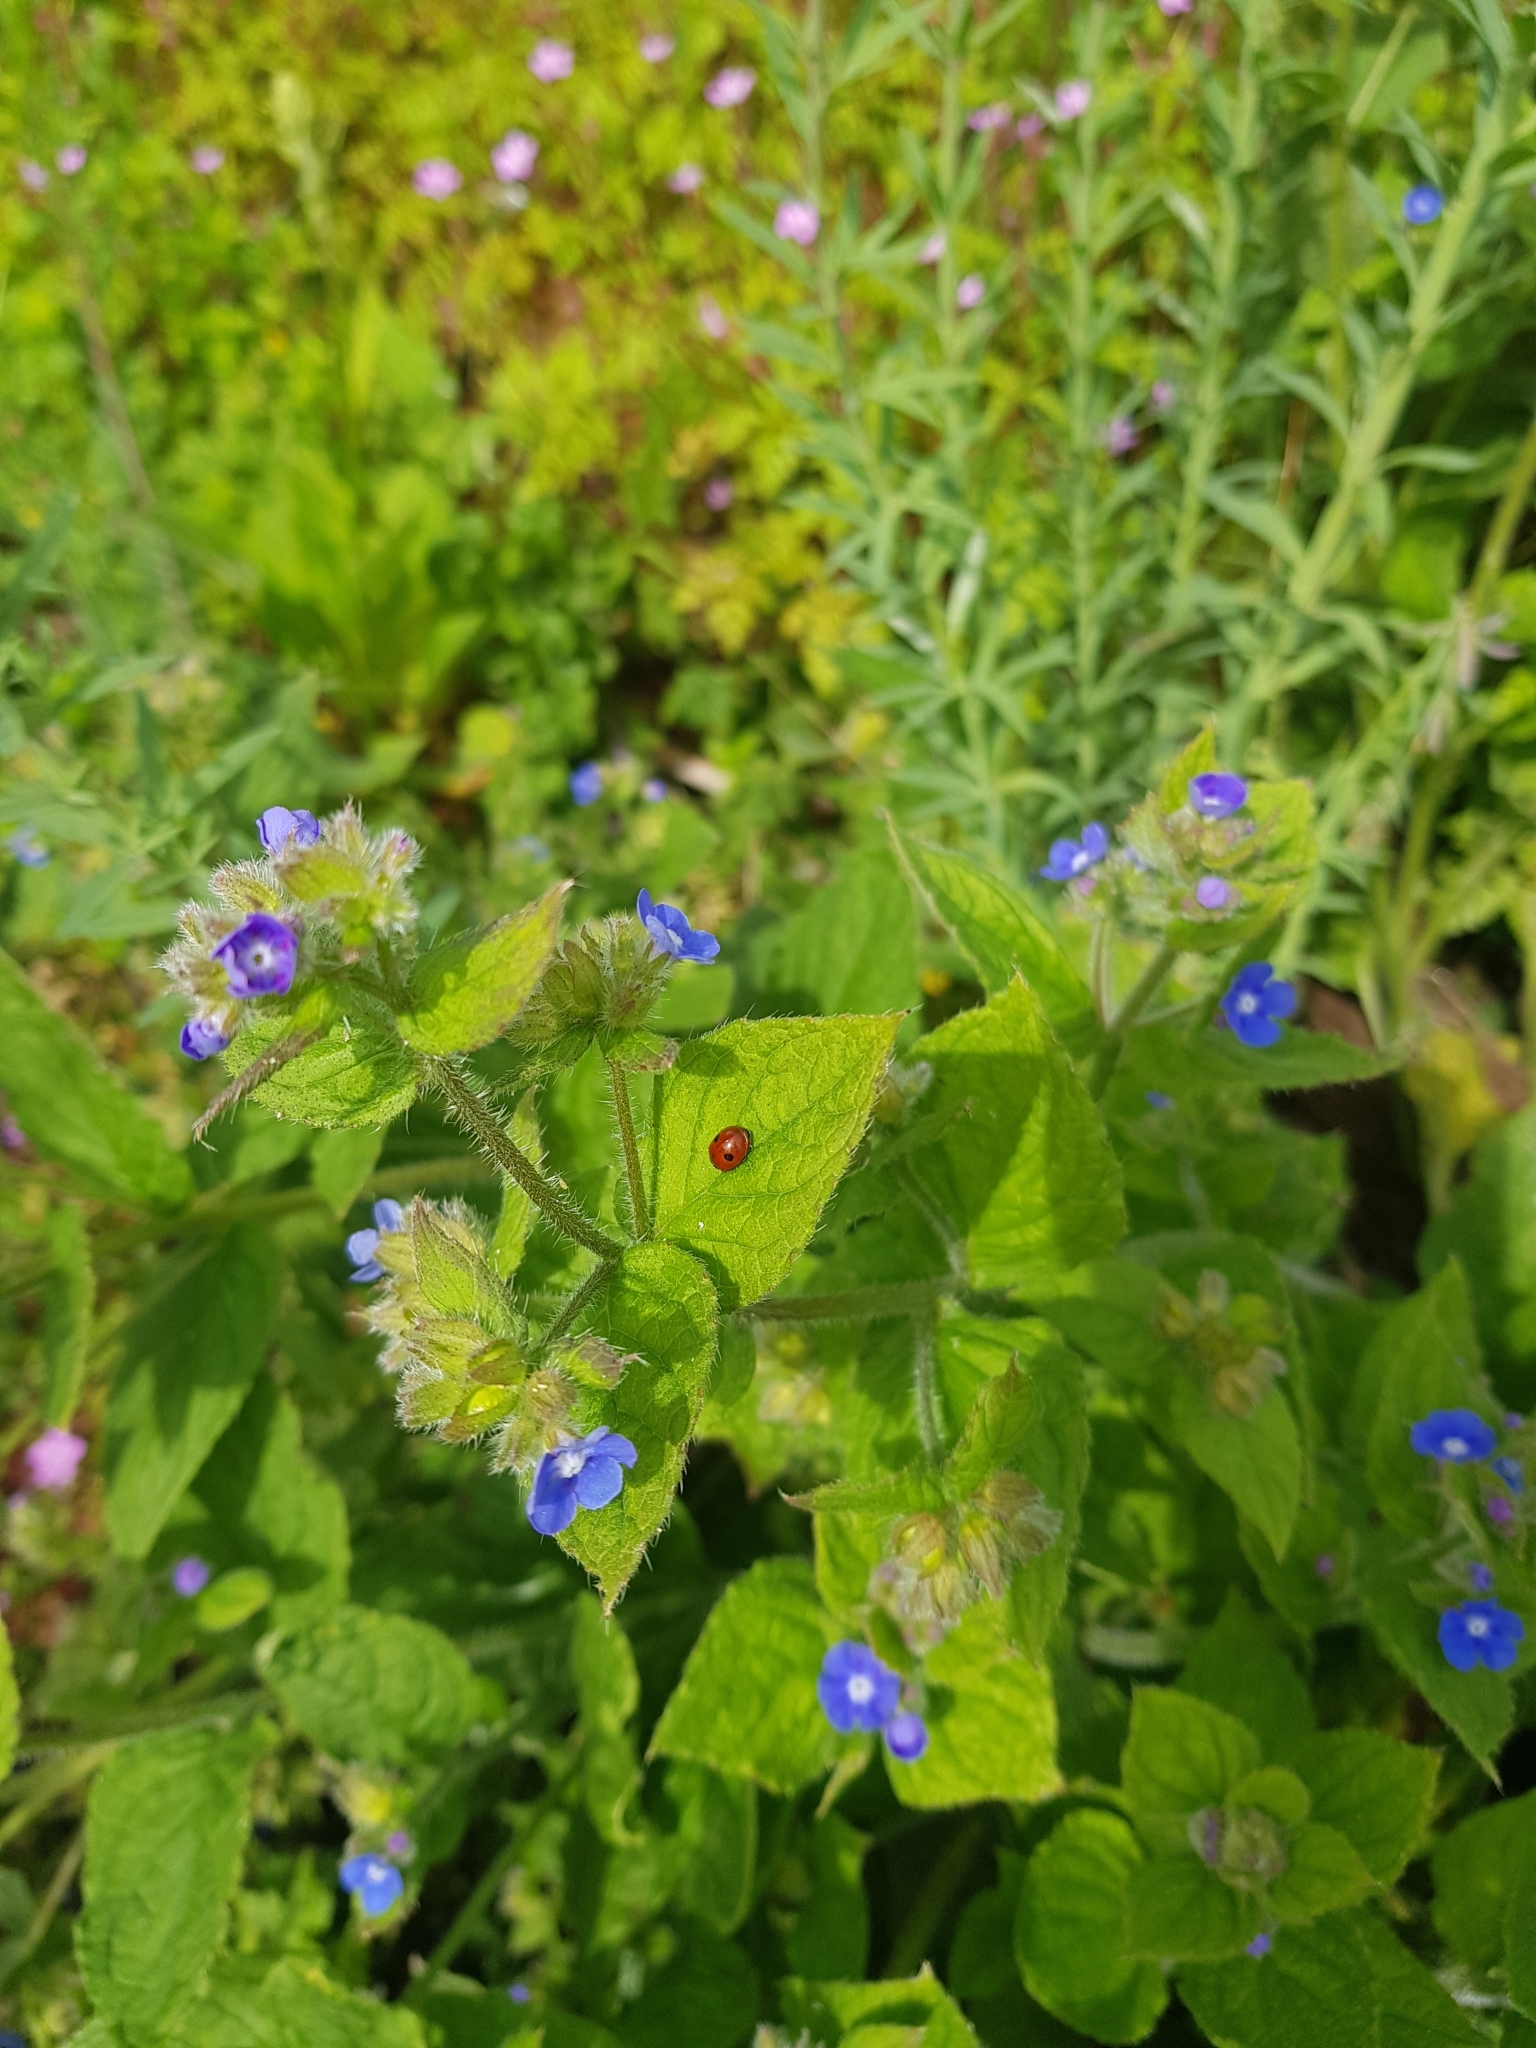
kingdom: Animalia
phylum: Arthropoda
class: Insecta
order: Coleoptera
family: Coccinellidae
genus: Adalia
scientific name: Adalia bipunctata
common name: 2-spot ladybird
